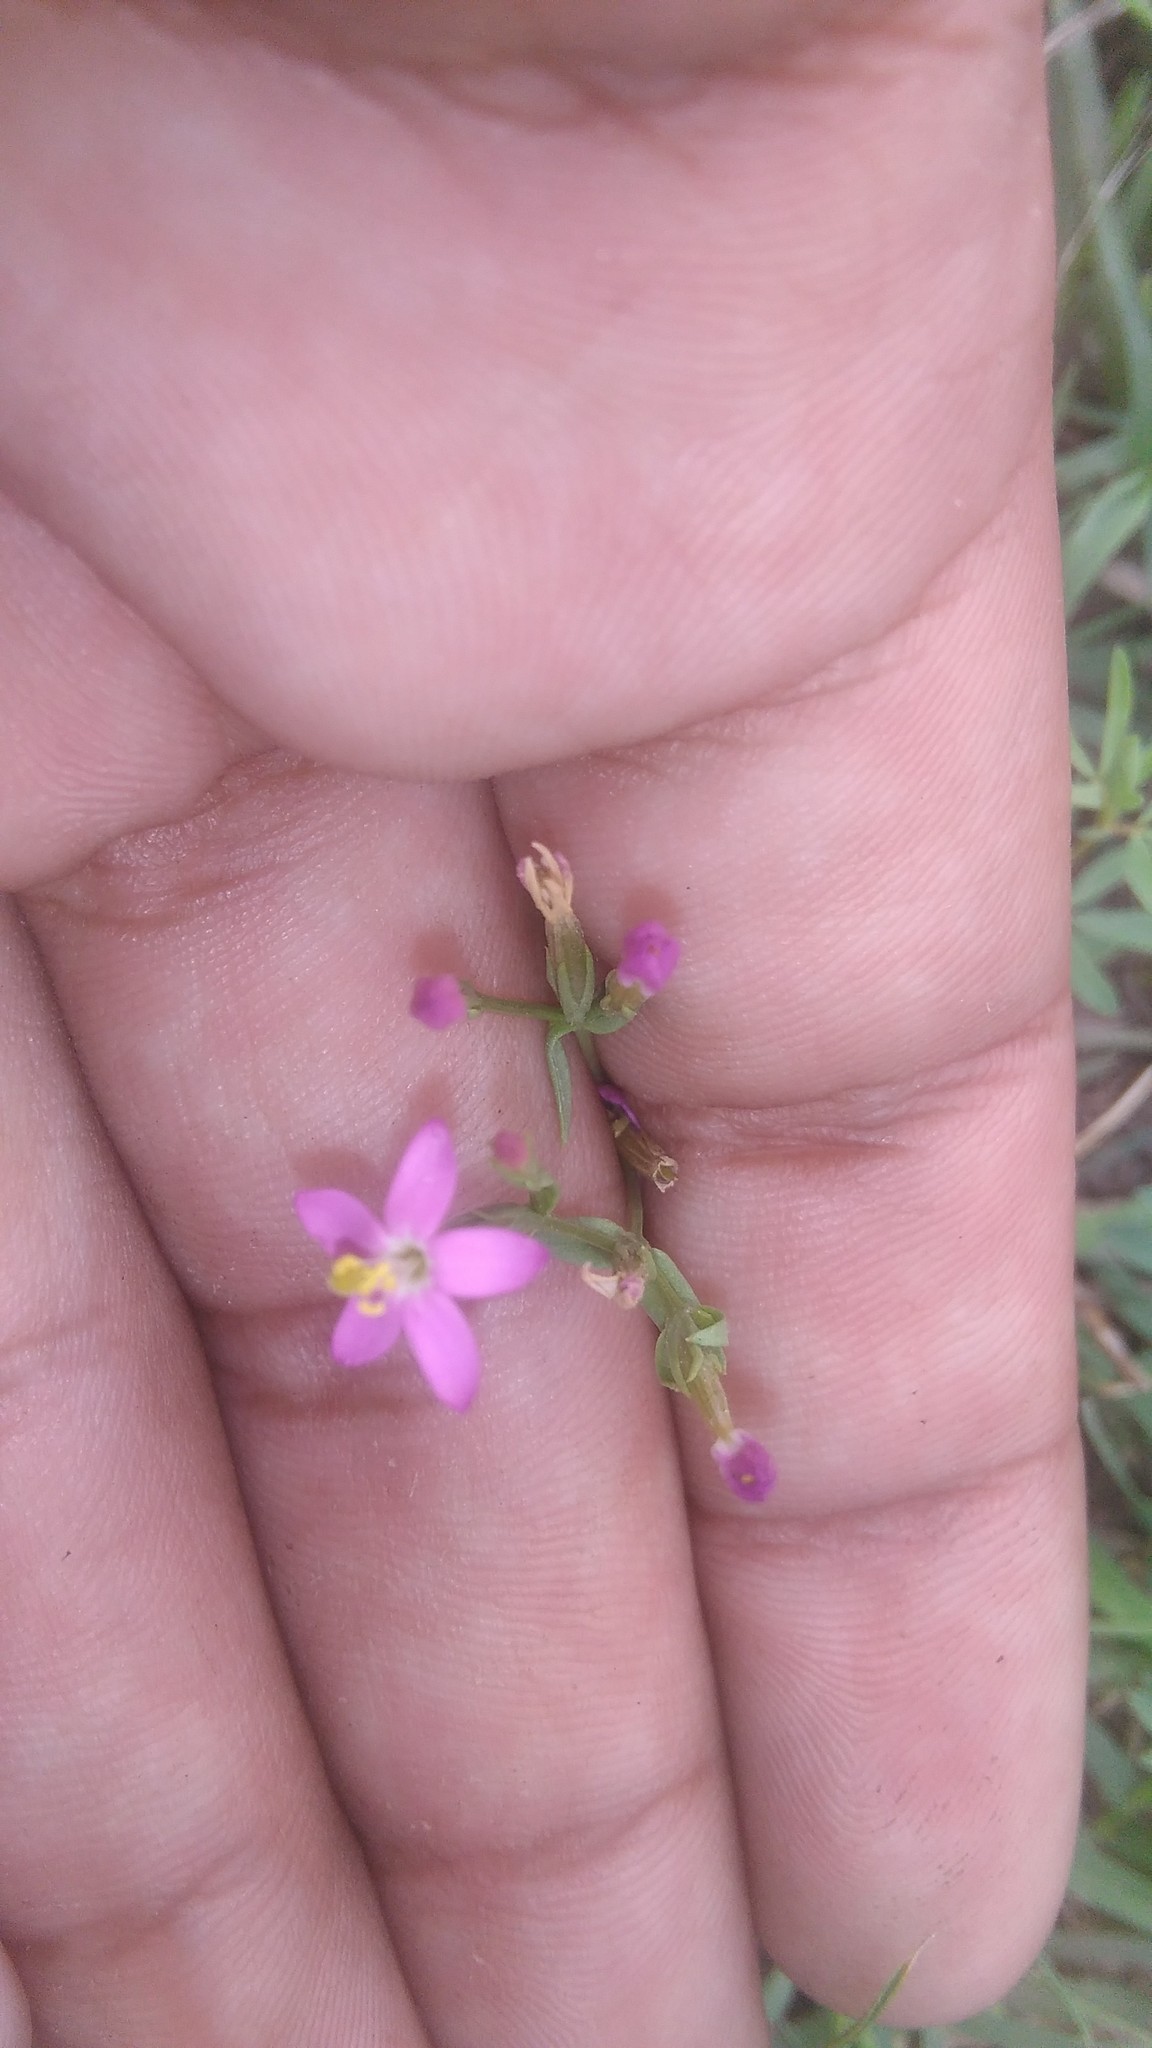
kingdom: Plantae
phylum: Tracheophyta
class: Magnoliopsida
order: Gentianales
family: Gentianaceae
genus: Centaurium
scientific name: Centaurium pulchellum
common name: Lesser centaury
